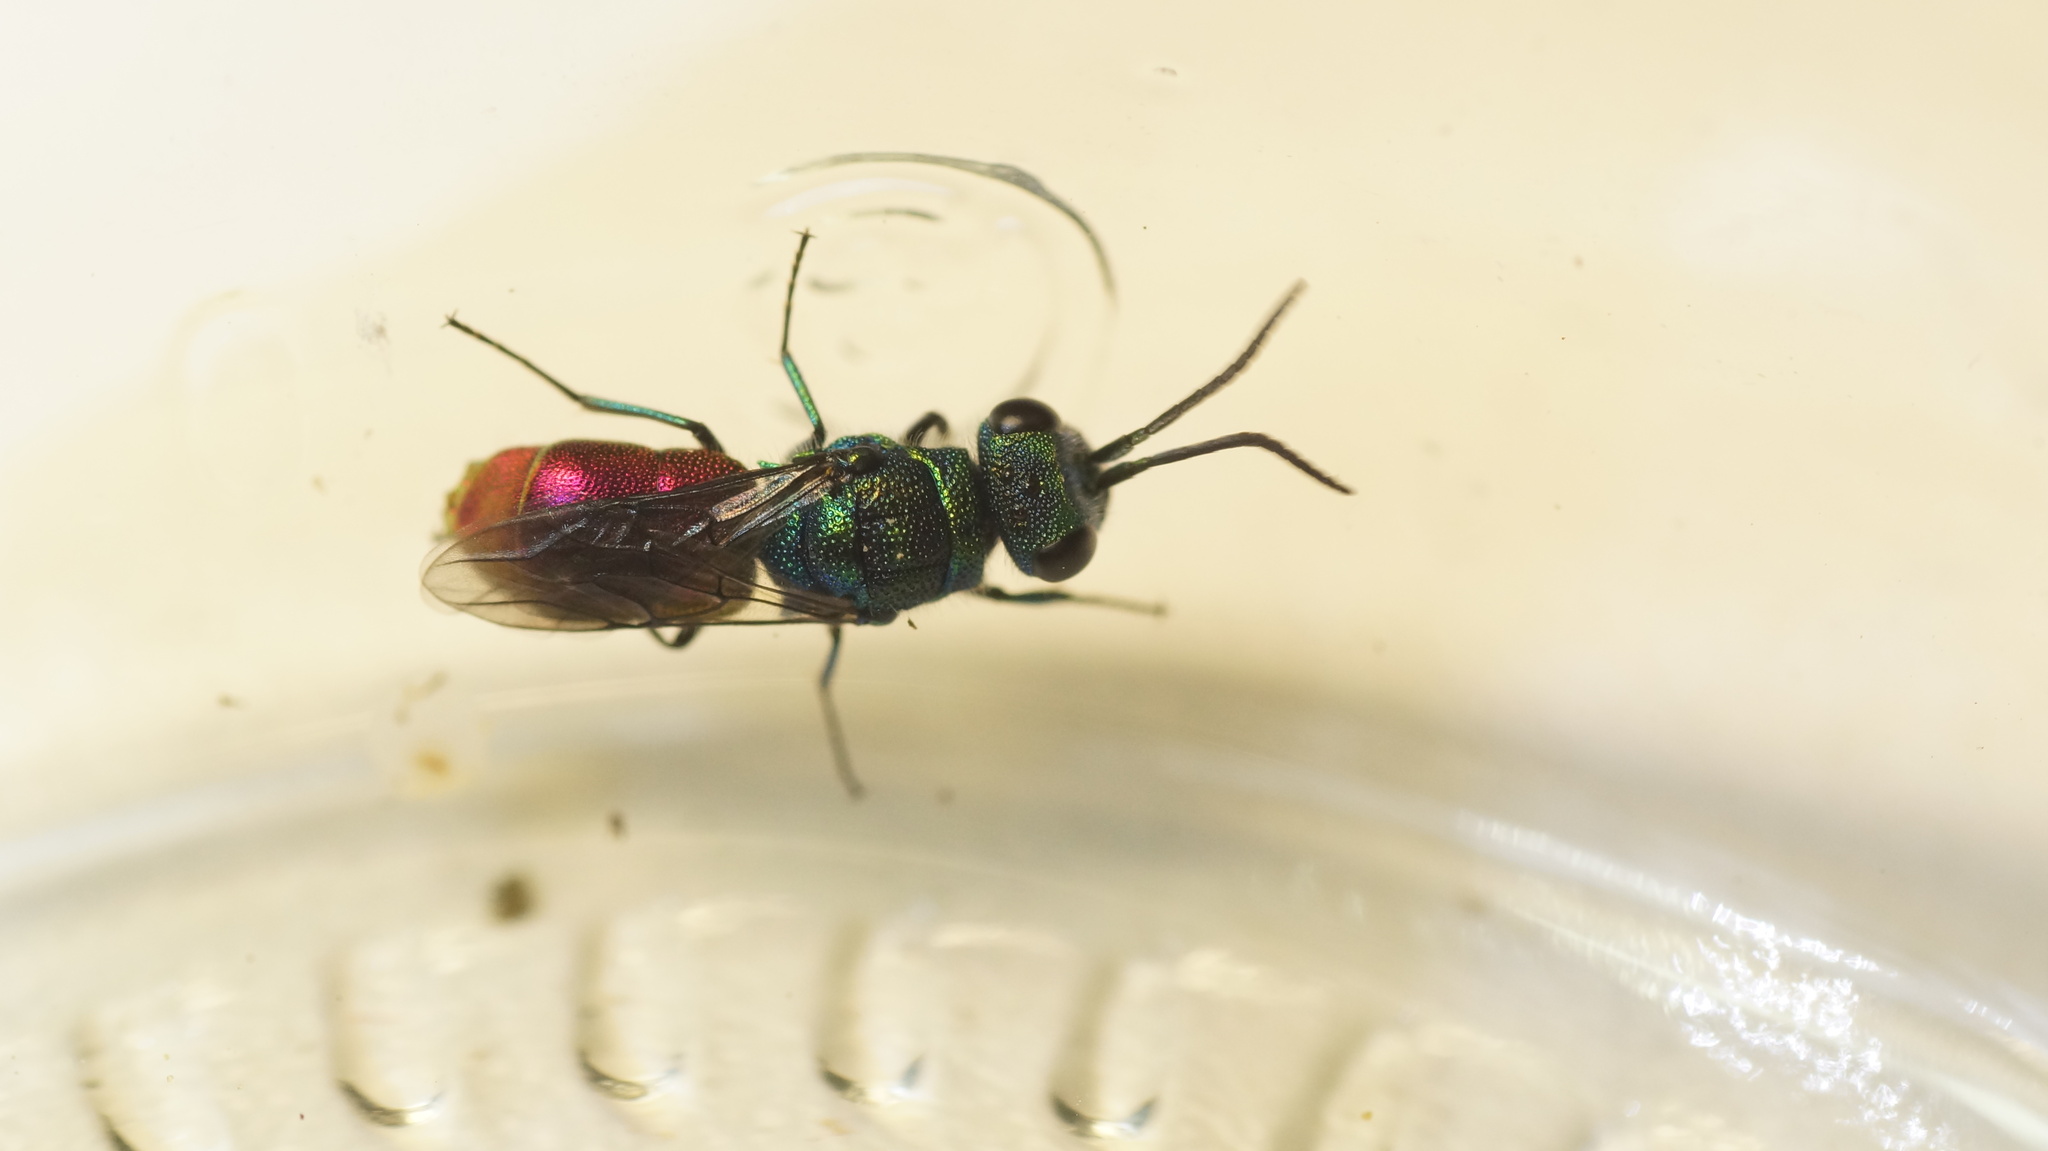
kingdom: Animalia
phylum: Arthropoda
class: Insecta
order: Hymenoptera
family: Chrysididae
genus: Chrysis
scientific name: Chrysis
